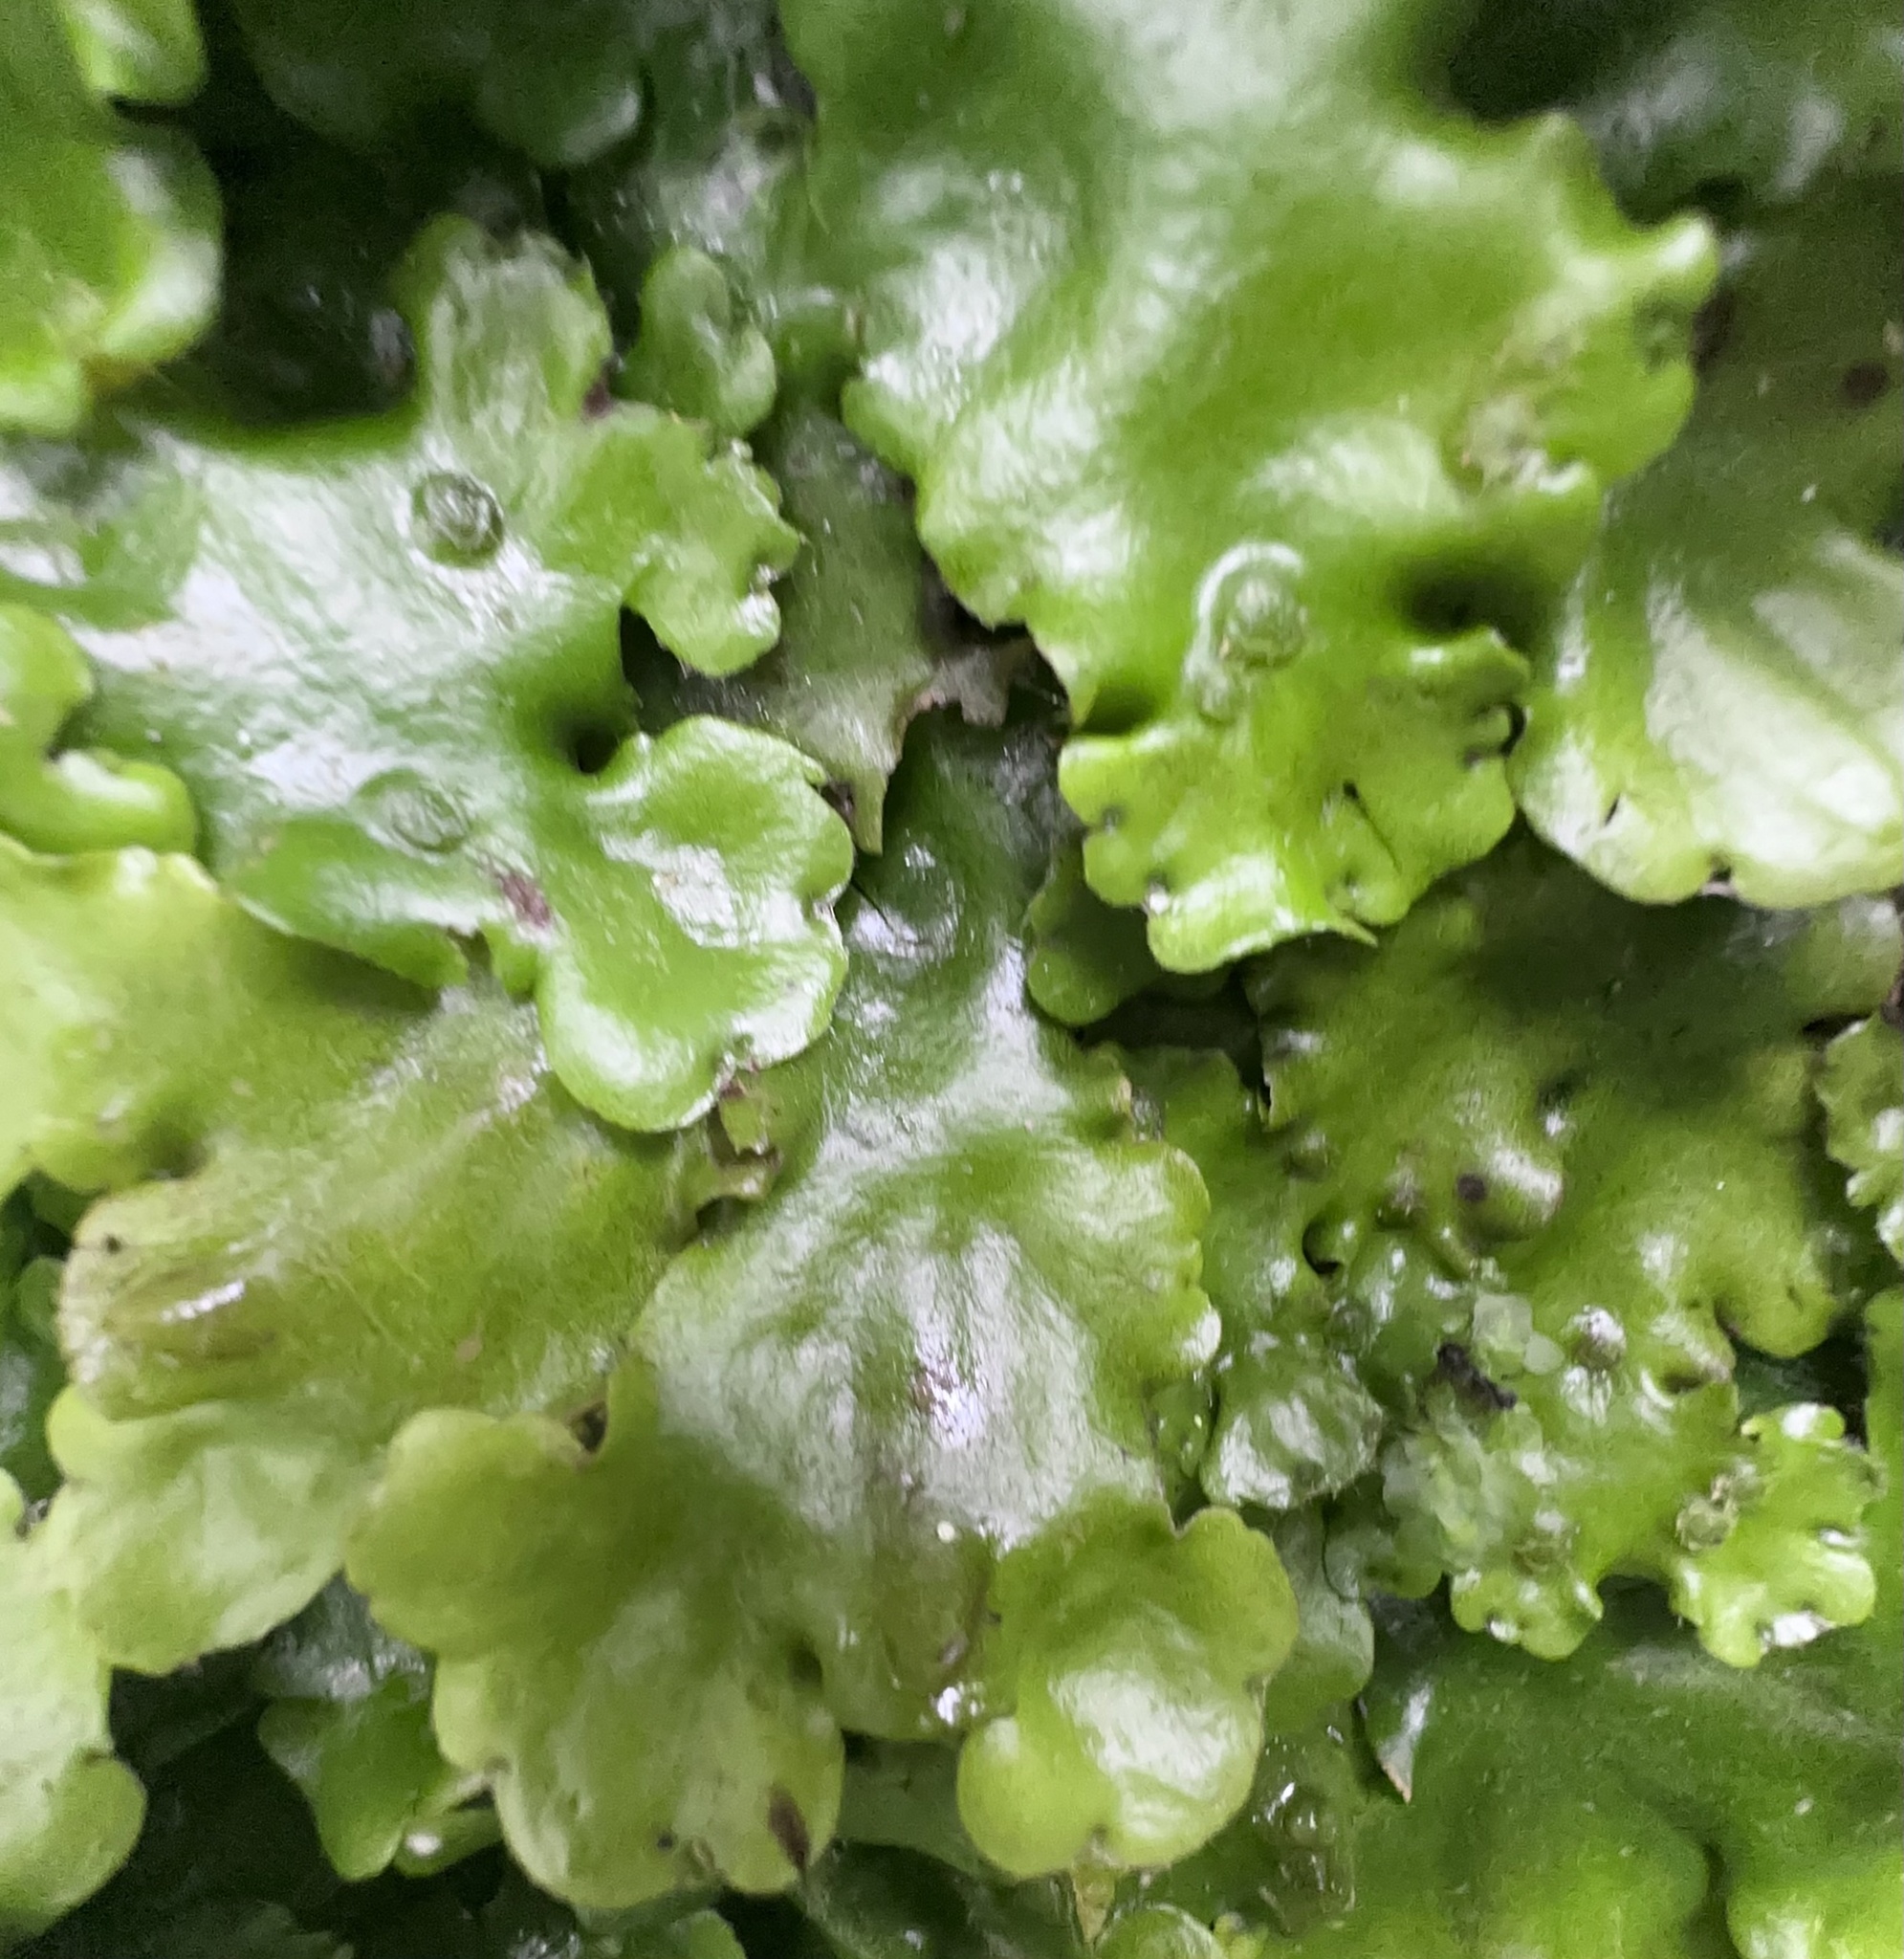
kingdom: Plantae
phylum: Marchantiophyta
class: Marchantiopsida
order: Marchantiales
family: Monocleaceae
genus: Monoclea
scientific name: Monoclea forsteri
